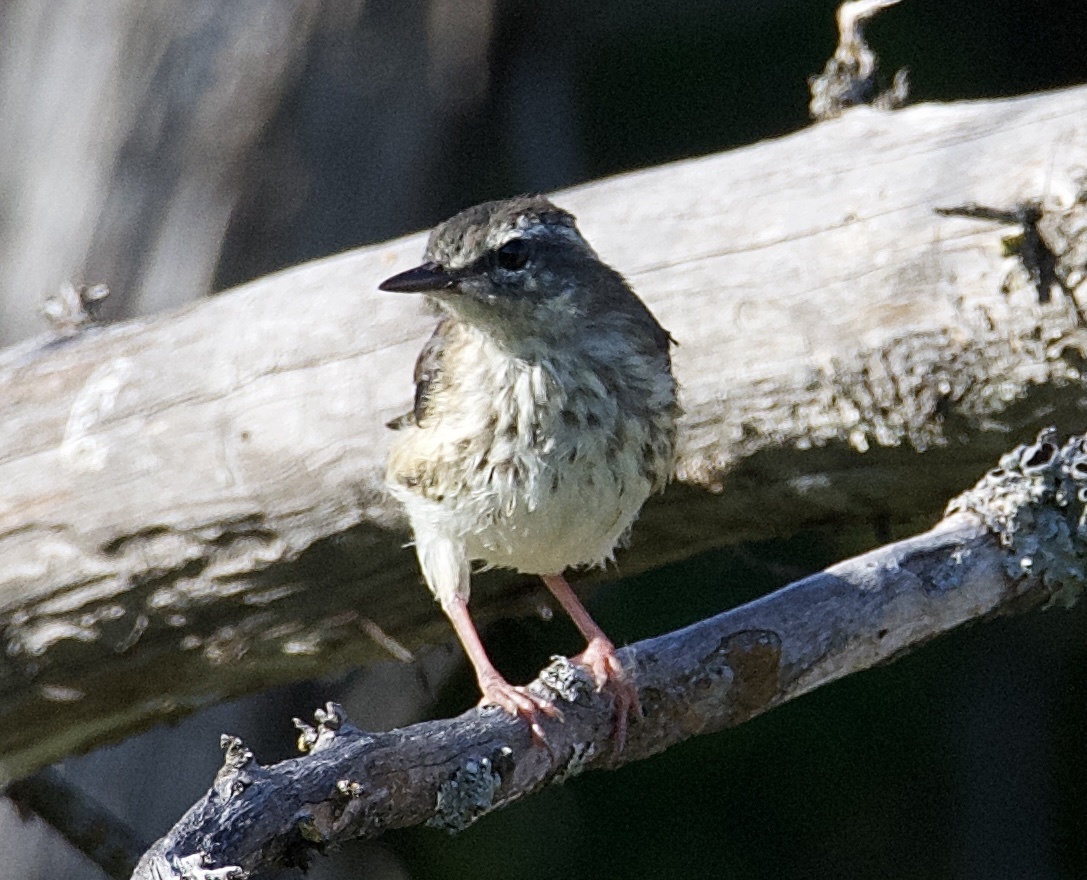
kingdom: Animalia
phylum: Chordata
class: Aves
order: Passeriformes
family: Parulidae
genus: Parkesia
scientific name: Parkesia motacilla
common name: Louisiana waterthrush
